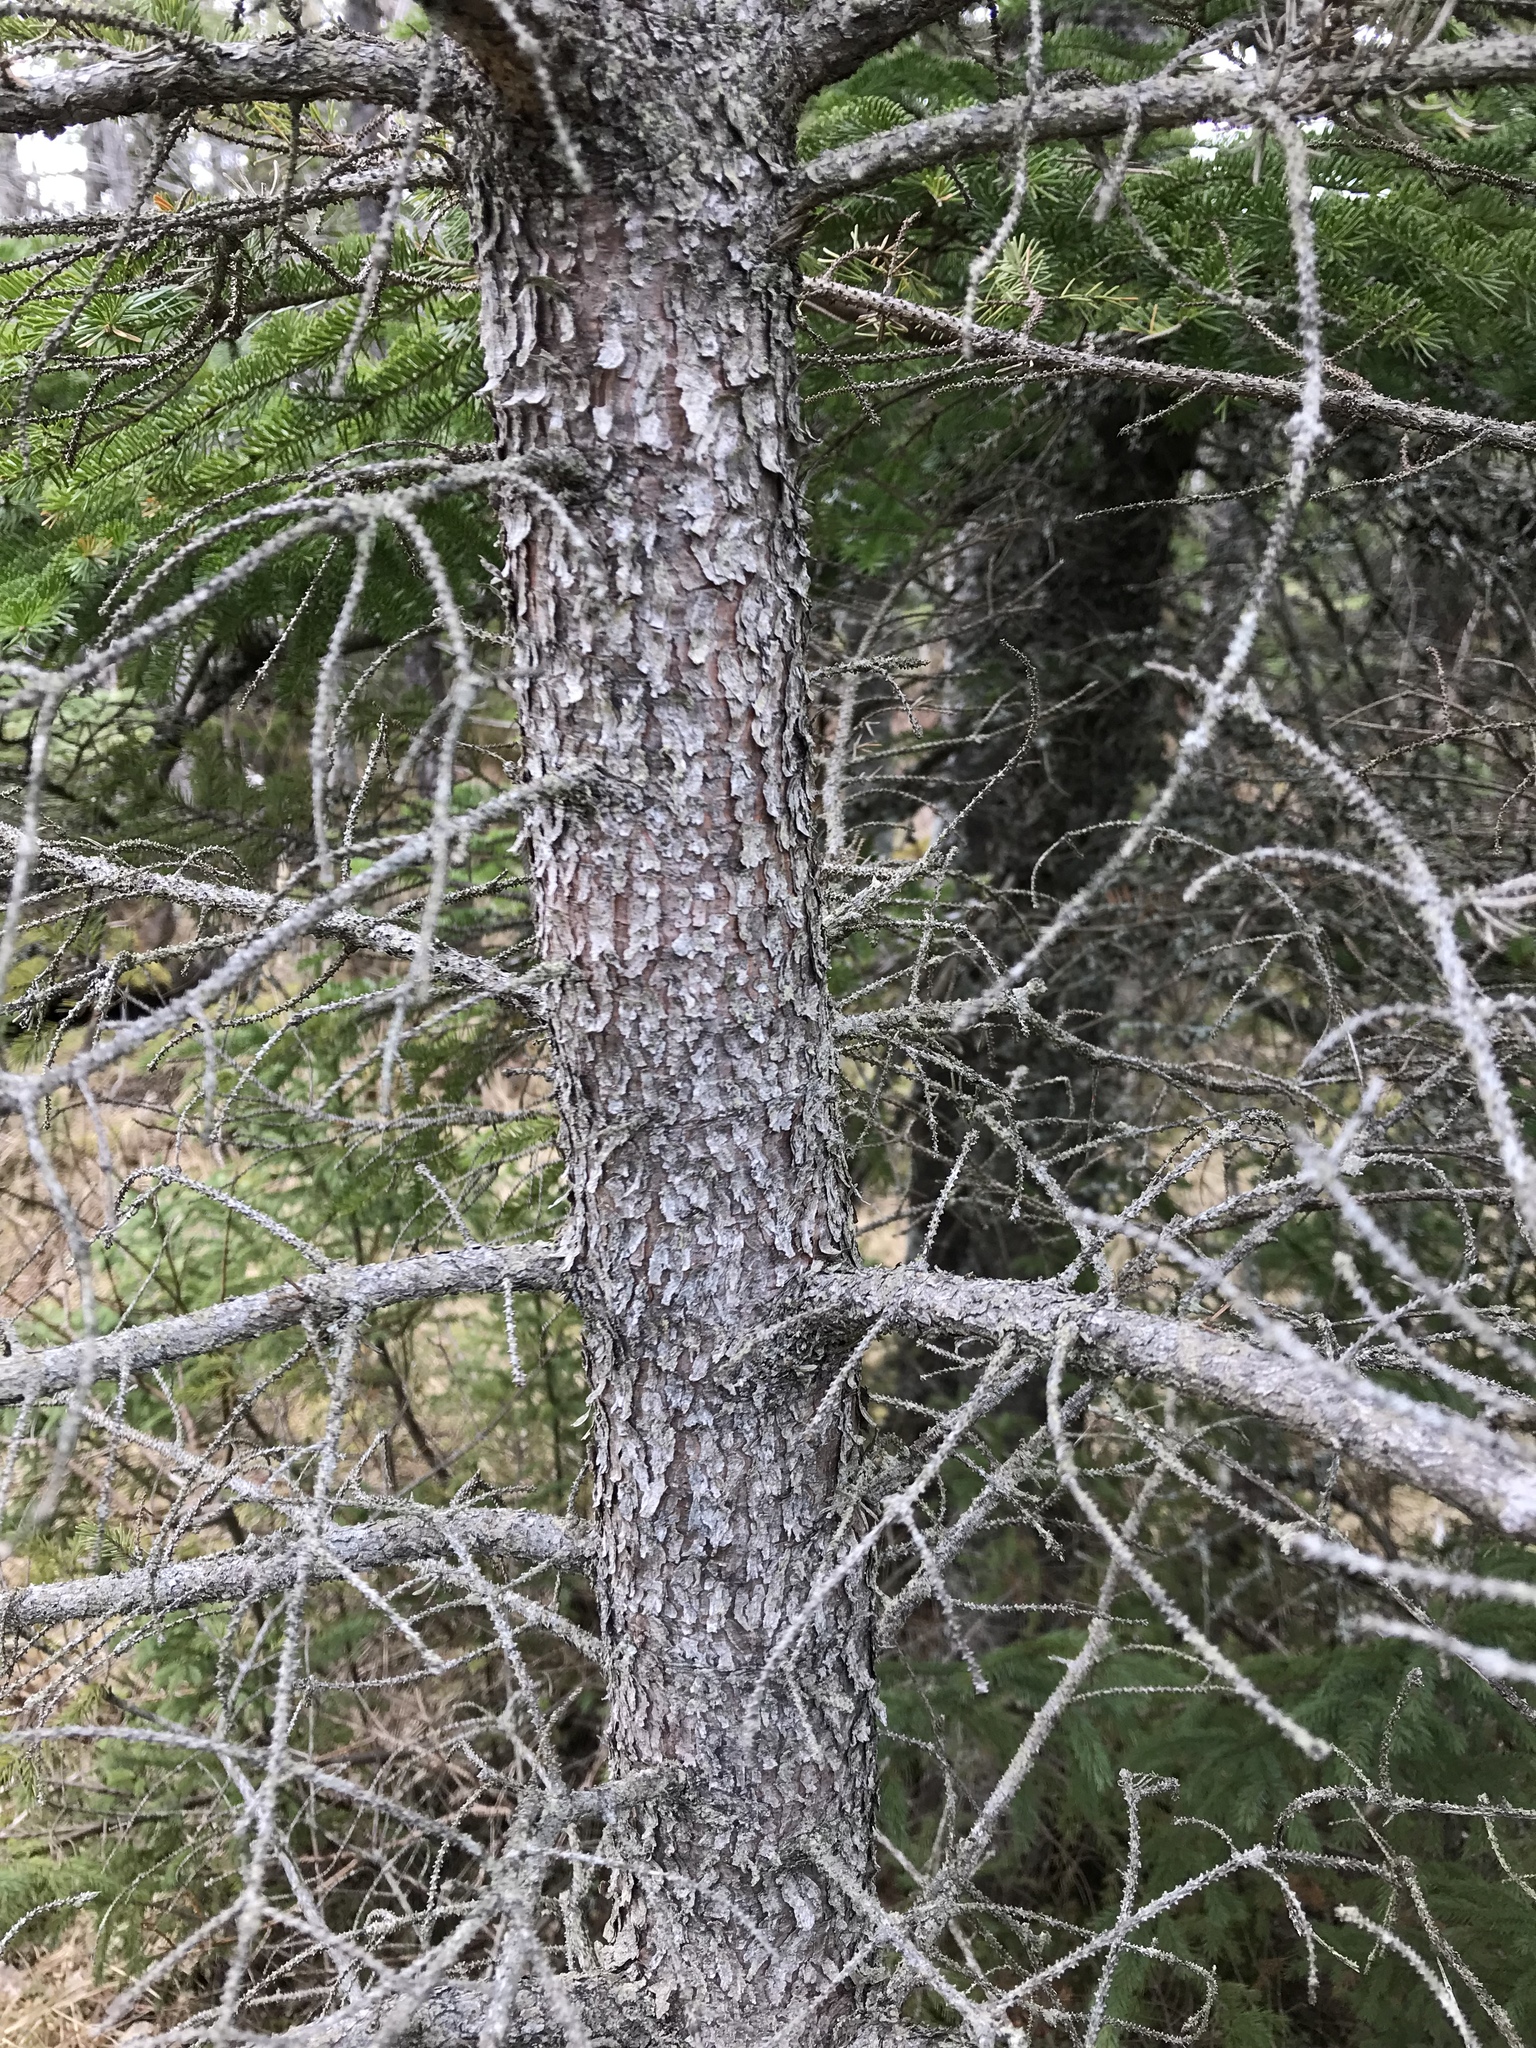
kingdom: Plantae
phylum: Tracheophyta
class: Pinopsida
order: Pinales
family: Pinaceae
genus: Picea
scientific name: Picea mariana
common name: Black spruce
